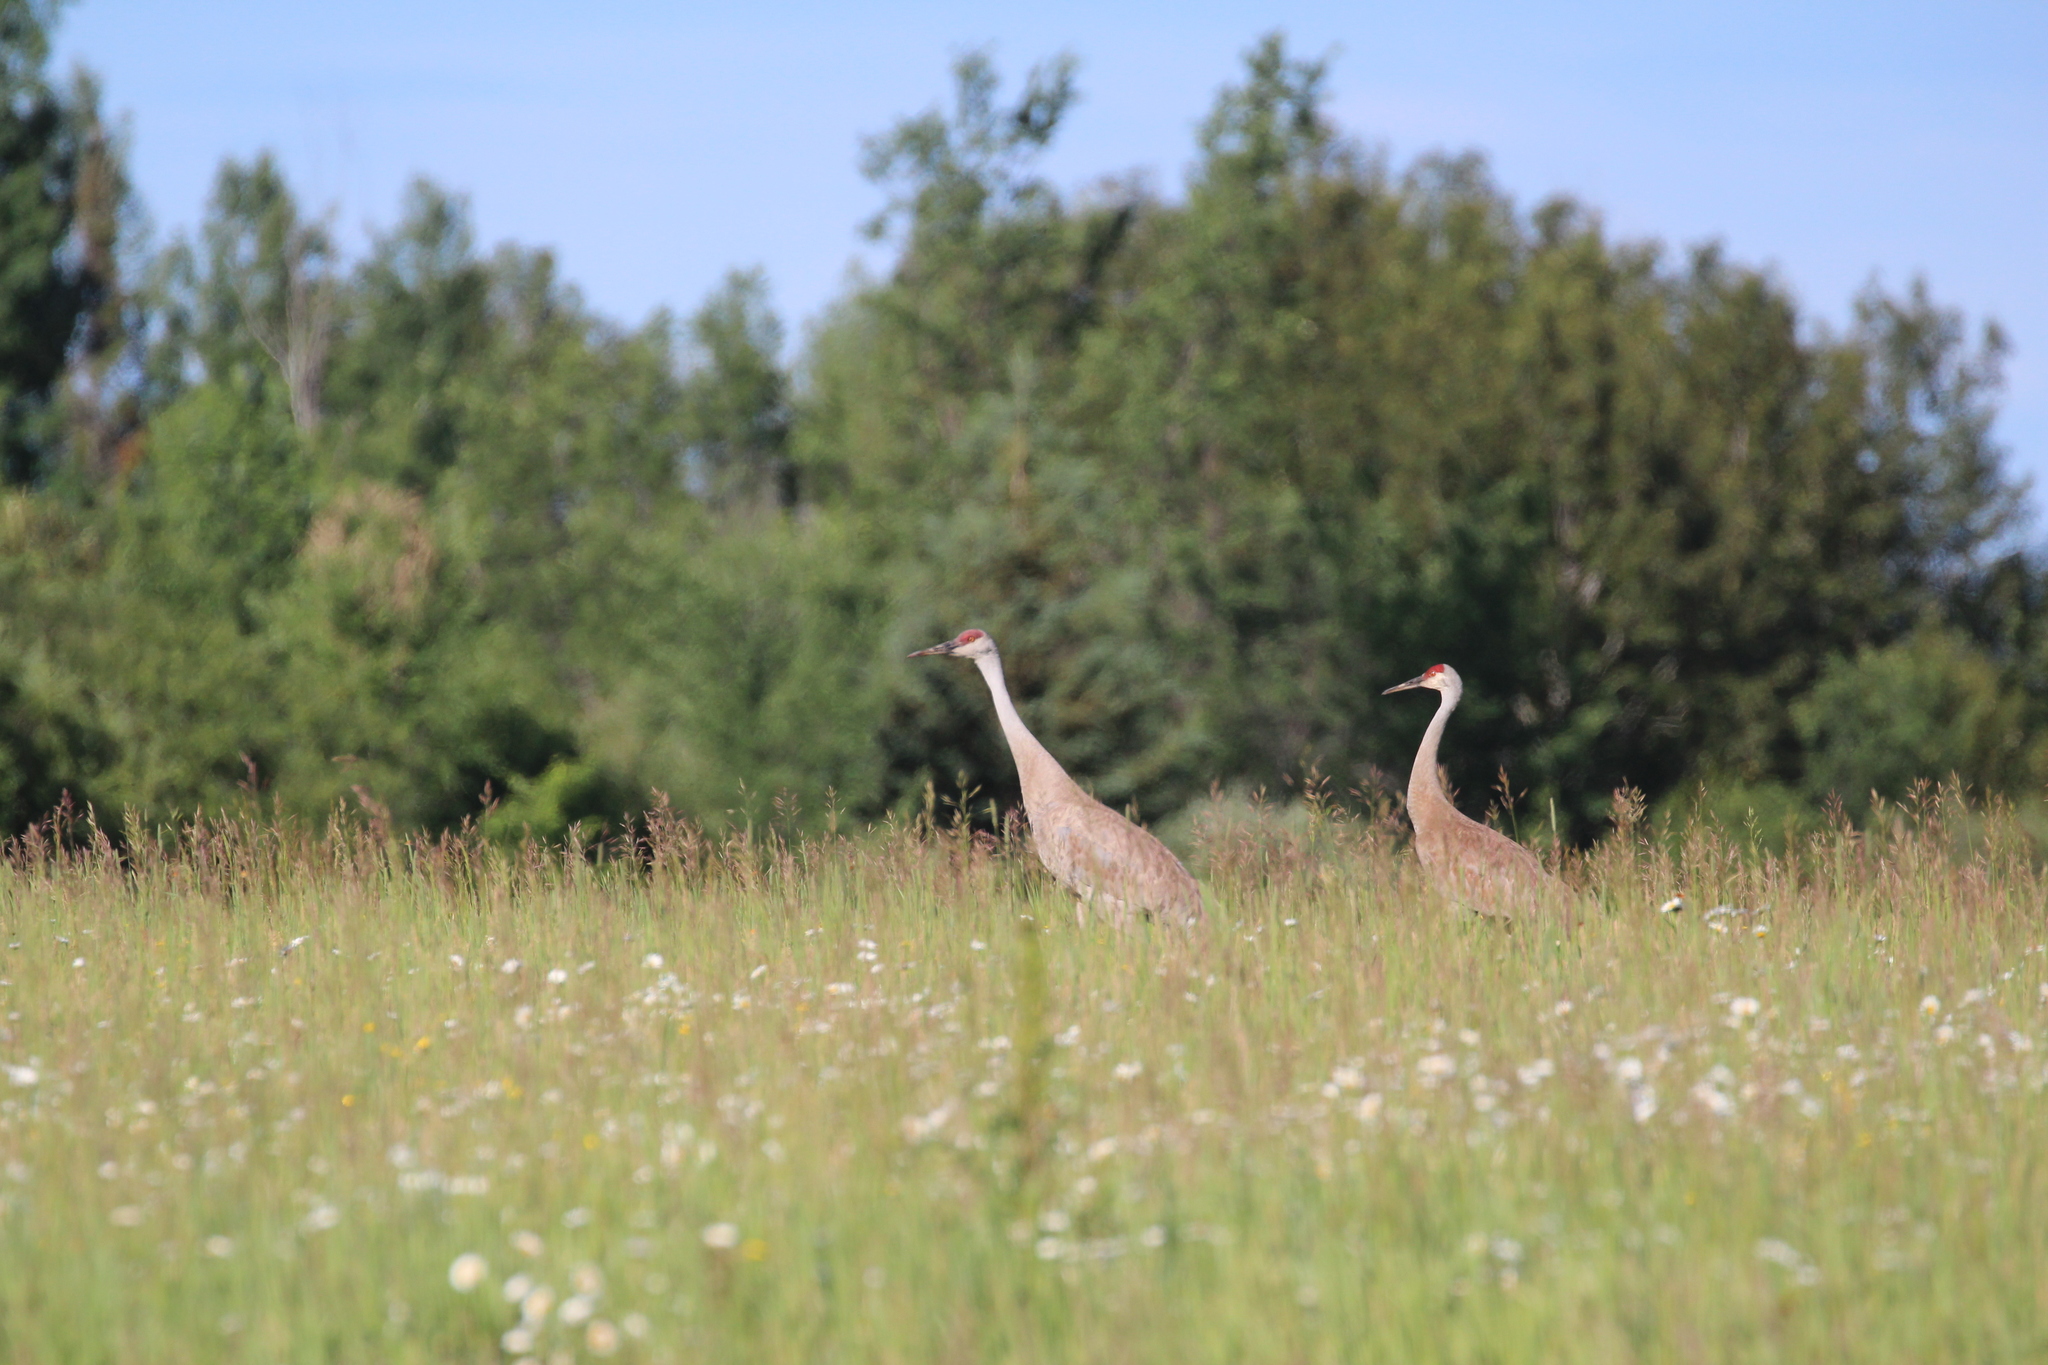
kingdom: Animalia
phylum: Chordata
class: Aves
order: Gruiformes
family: Gruidae
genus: Grus
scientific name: Grus canadensis
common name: Sandhill crane
